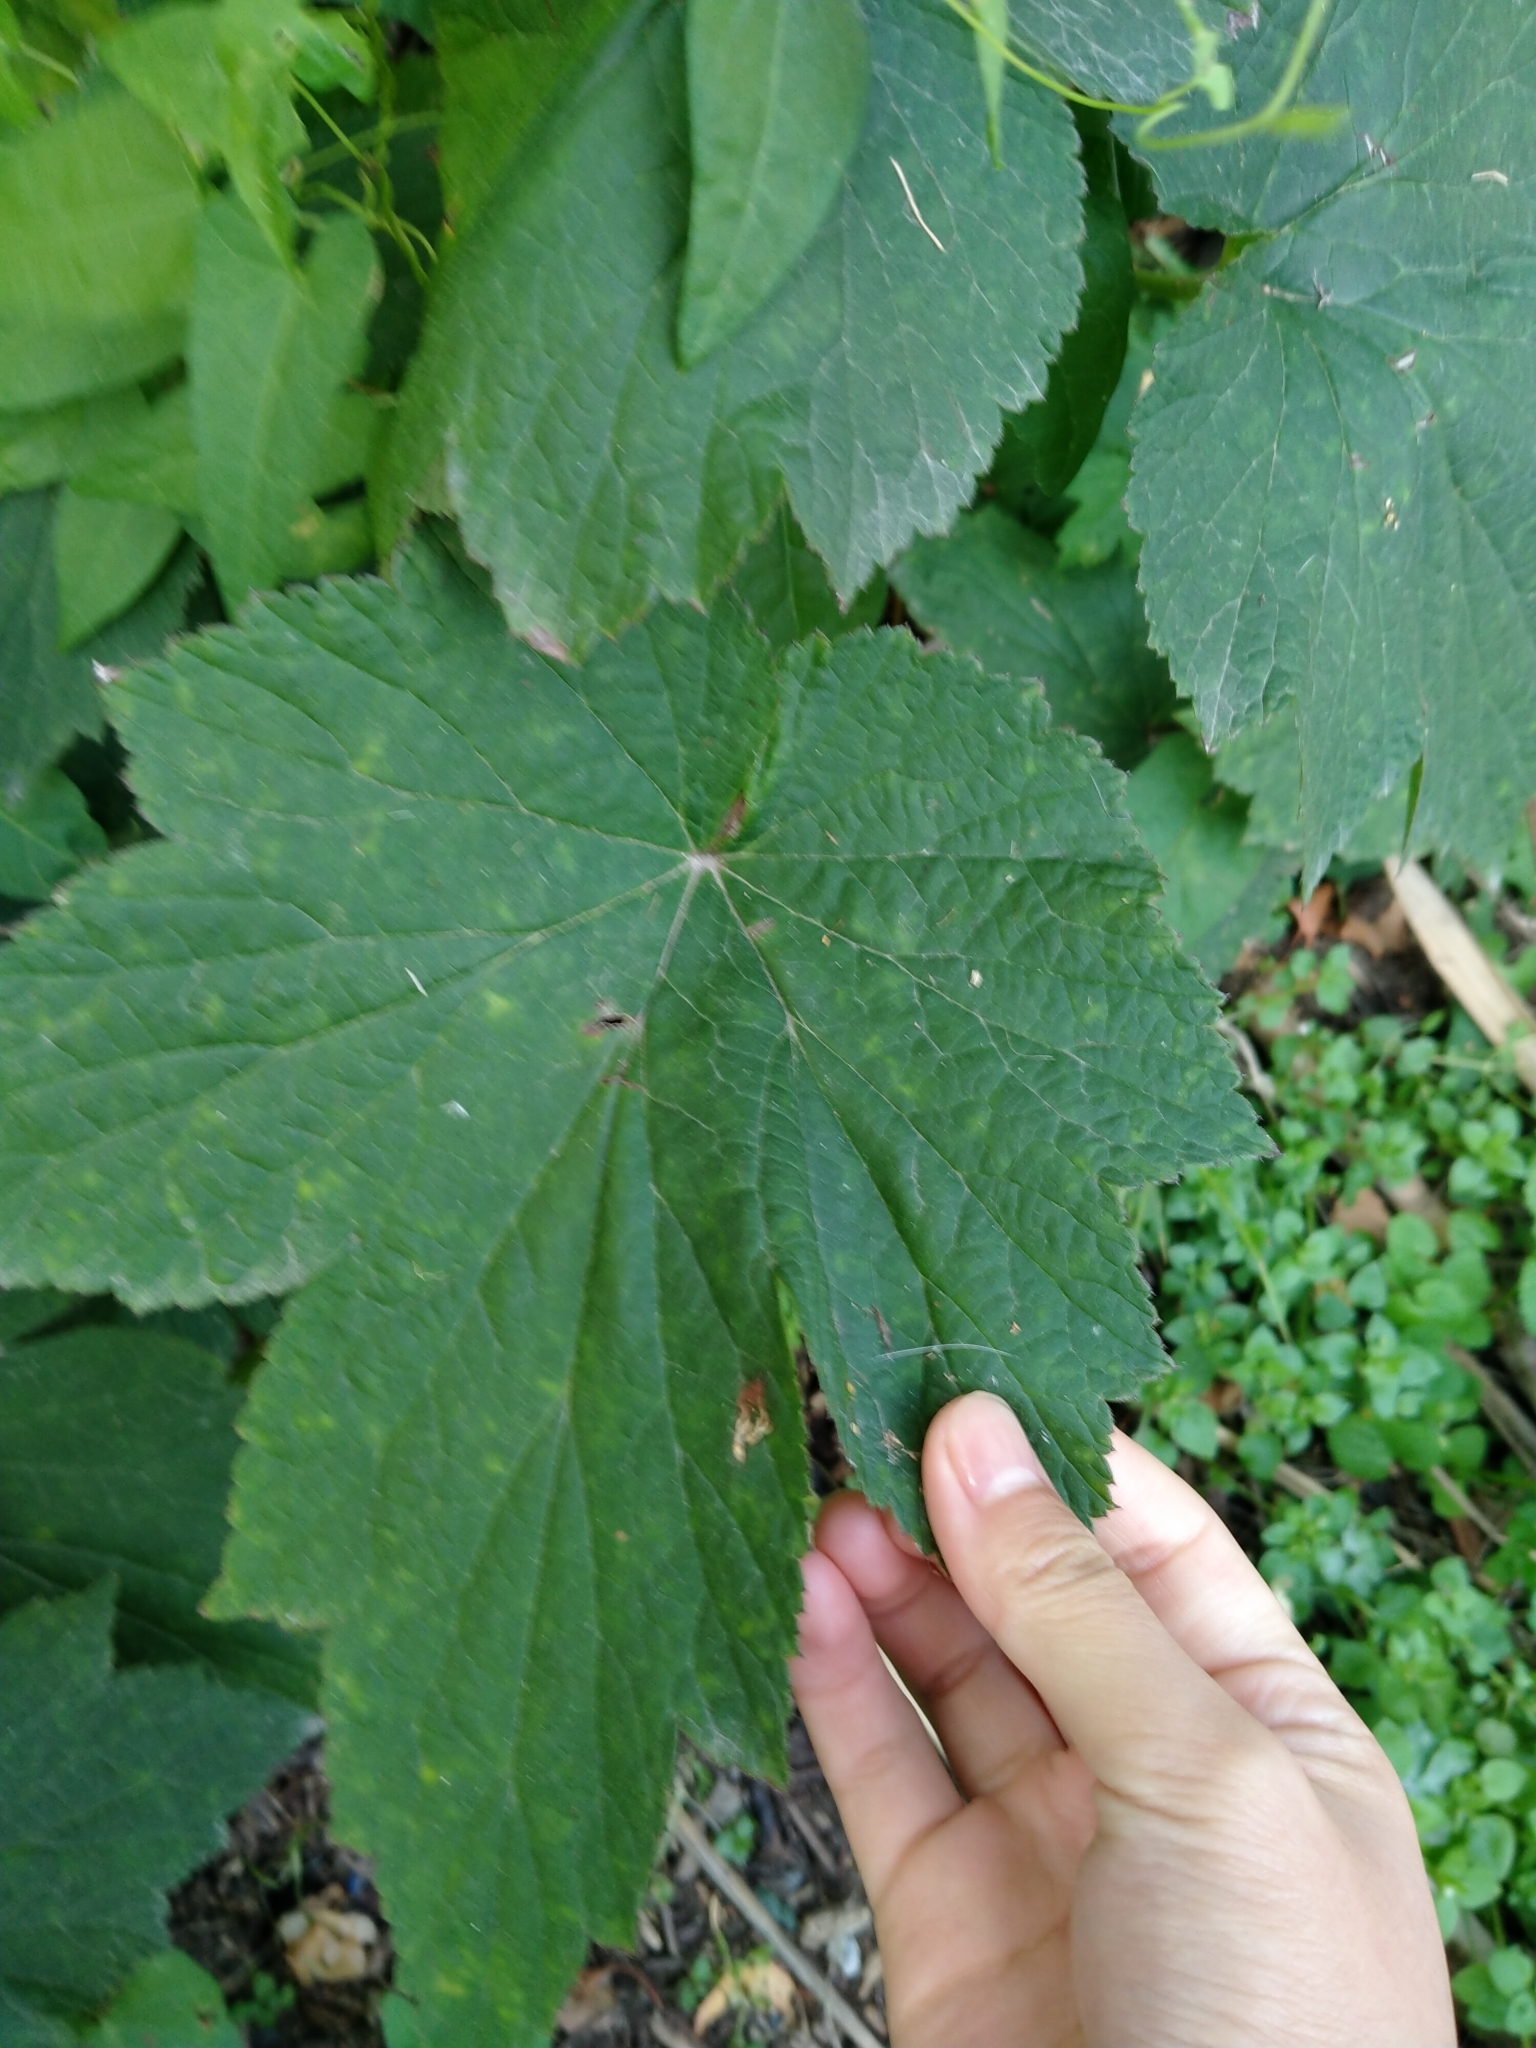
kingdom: Plantae
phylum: Tracheophyta
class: Magnoliopsida
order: Ranunculales
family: Ranunculaceae
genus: Eriocapitella
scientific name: Eriocapitella hybrida
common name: Japanese anemone
